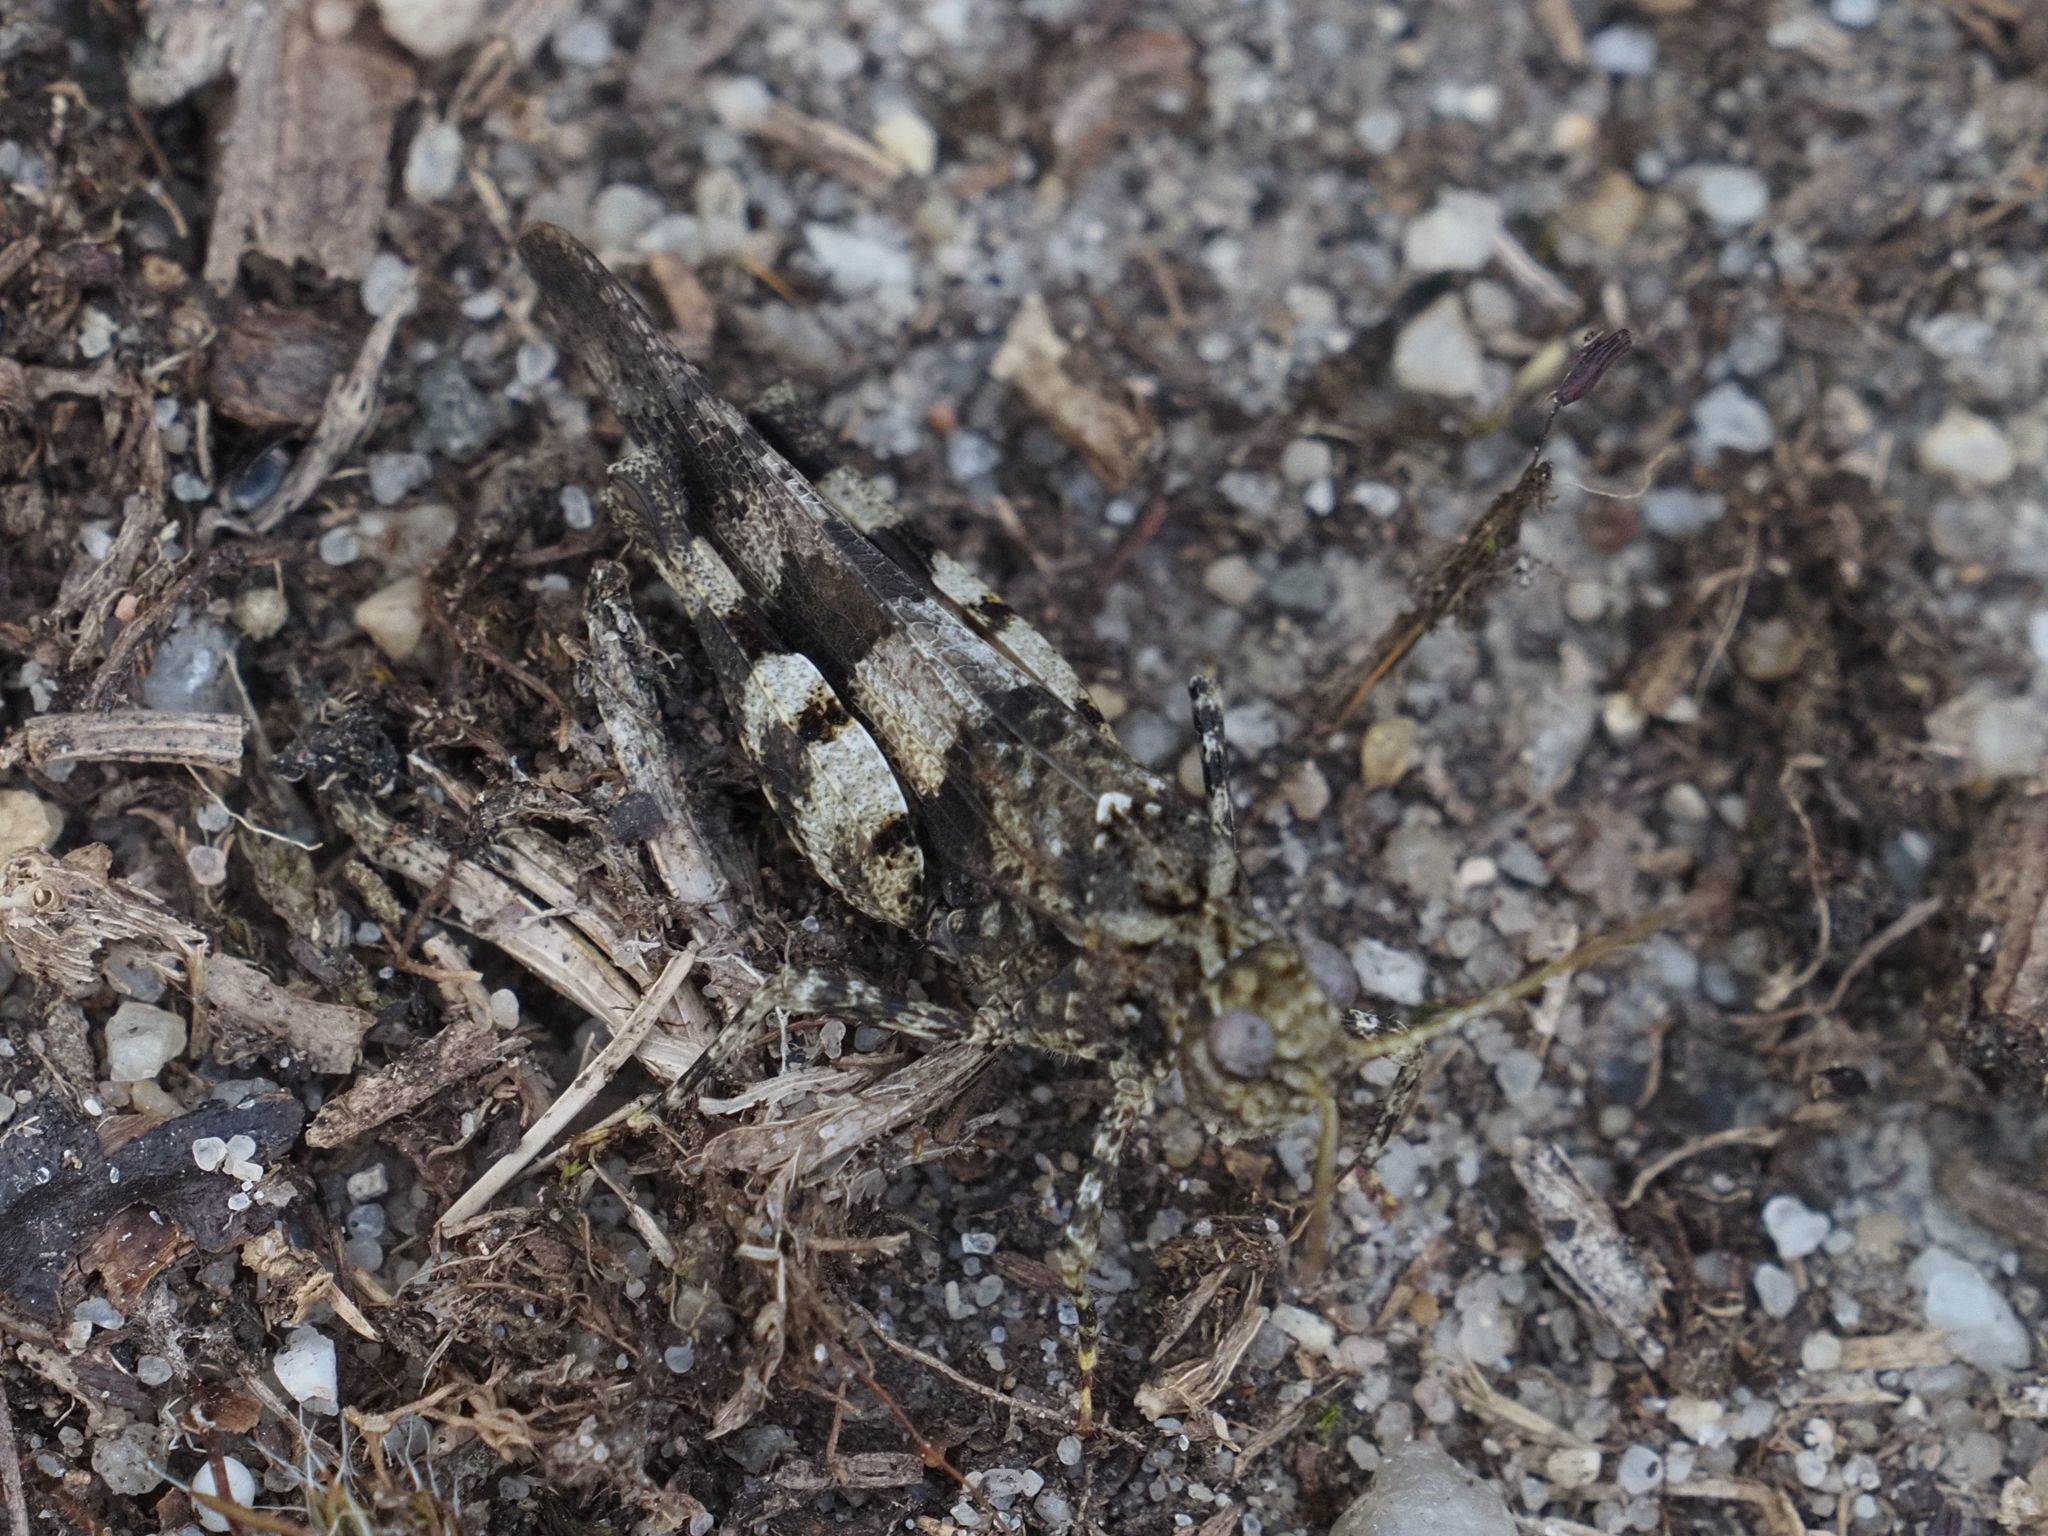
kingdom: Animalia
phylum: Arthropoda
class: Insecta
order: Orthoptera
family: Acrididae
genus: Oedipoda
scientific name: Oedipoda caerulescens
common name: Blue-winged grasshopper
